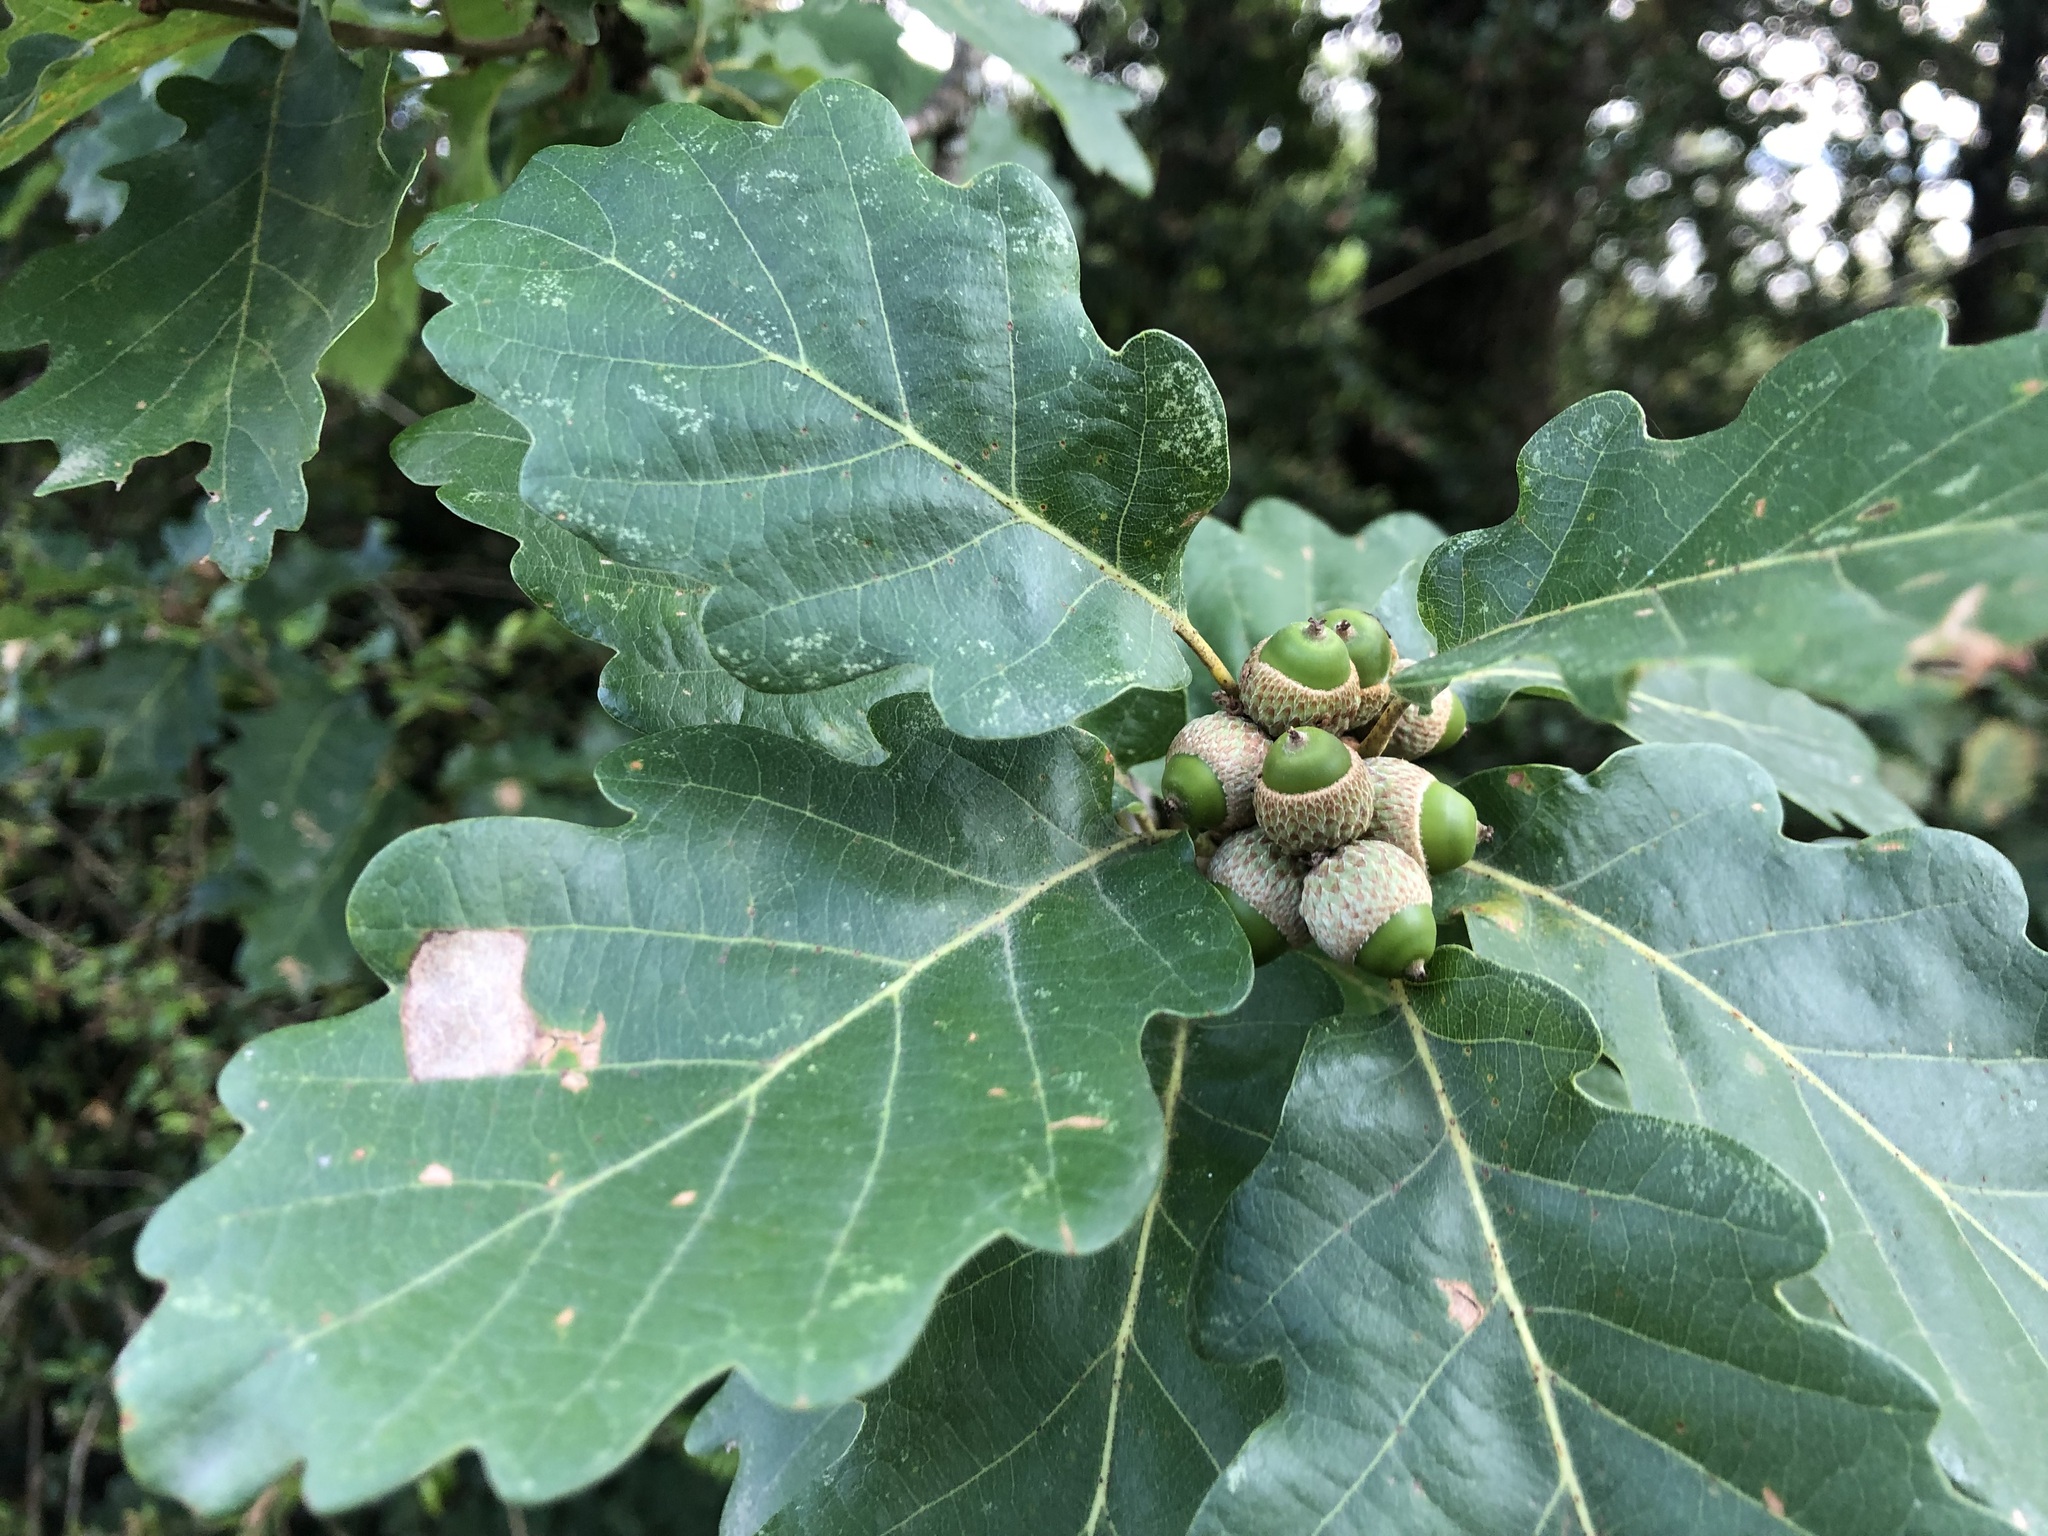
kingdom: Plantae
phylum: Tracheophyta
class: Magnoliopsida
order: Fagales
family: Fagaceae
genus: Quercus
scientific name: Quercus petraea
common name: Sessile oak
